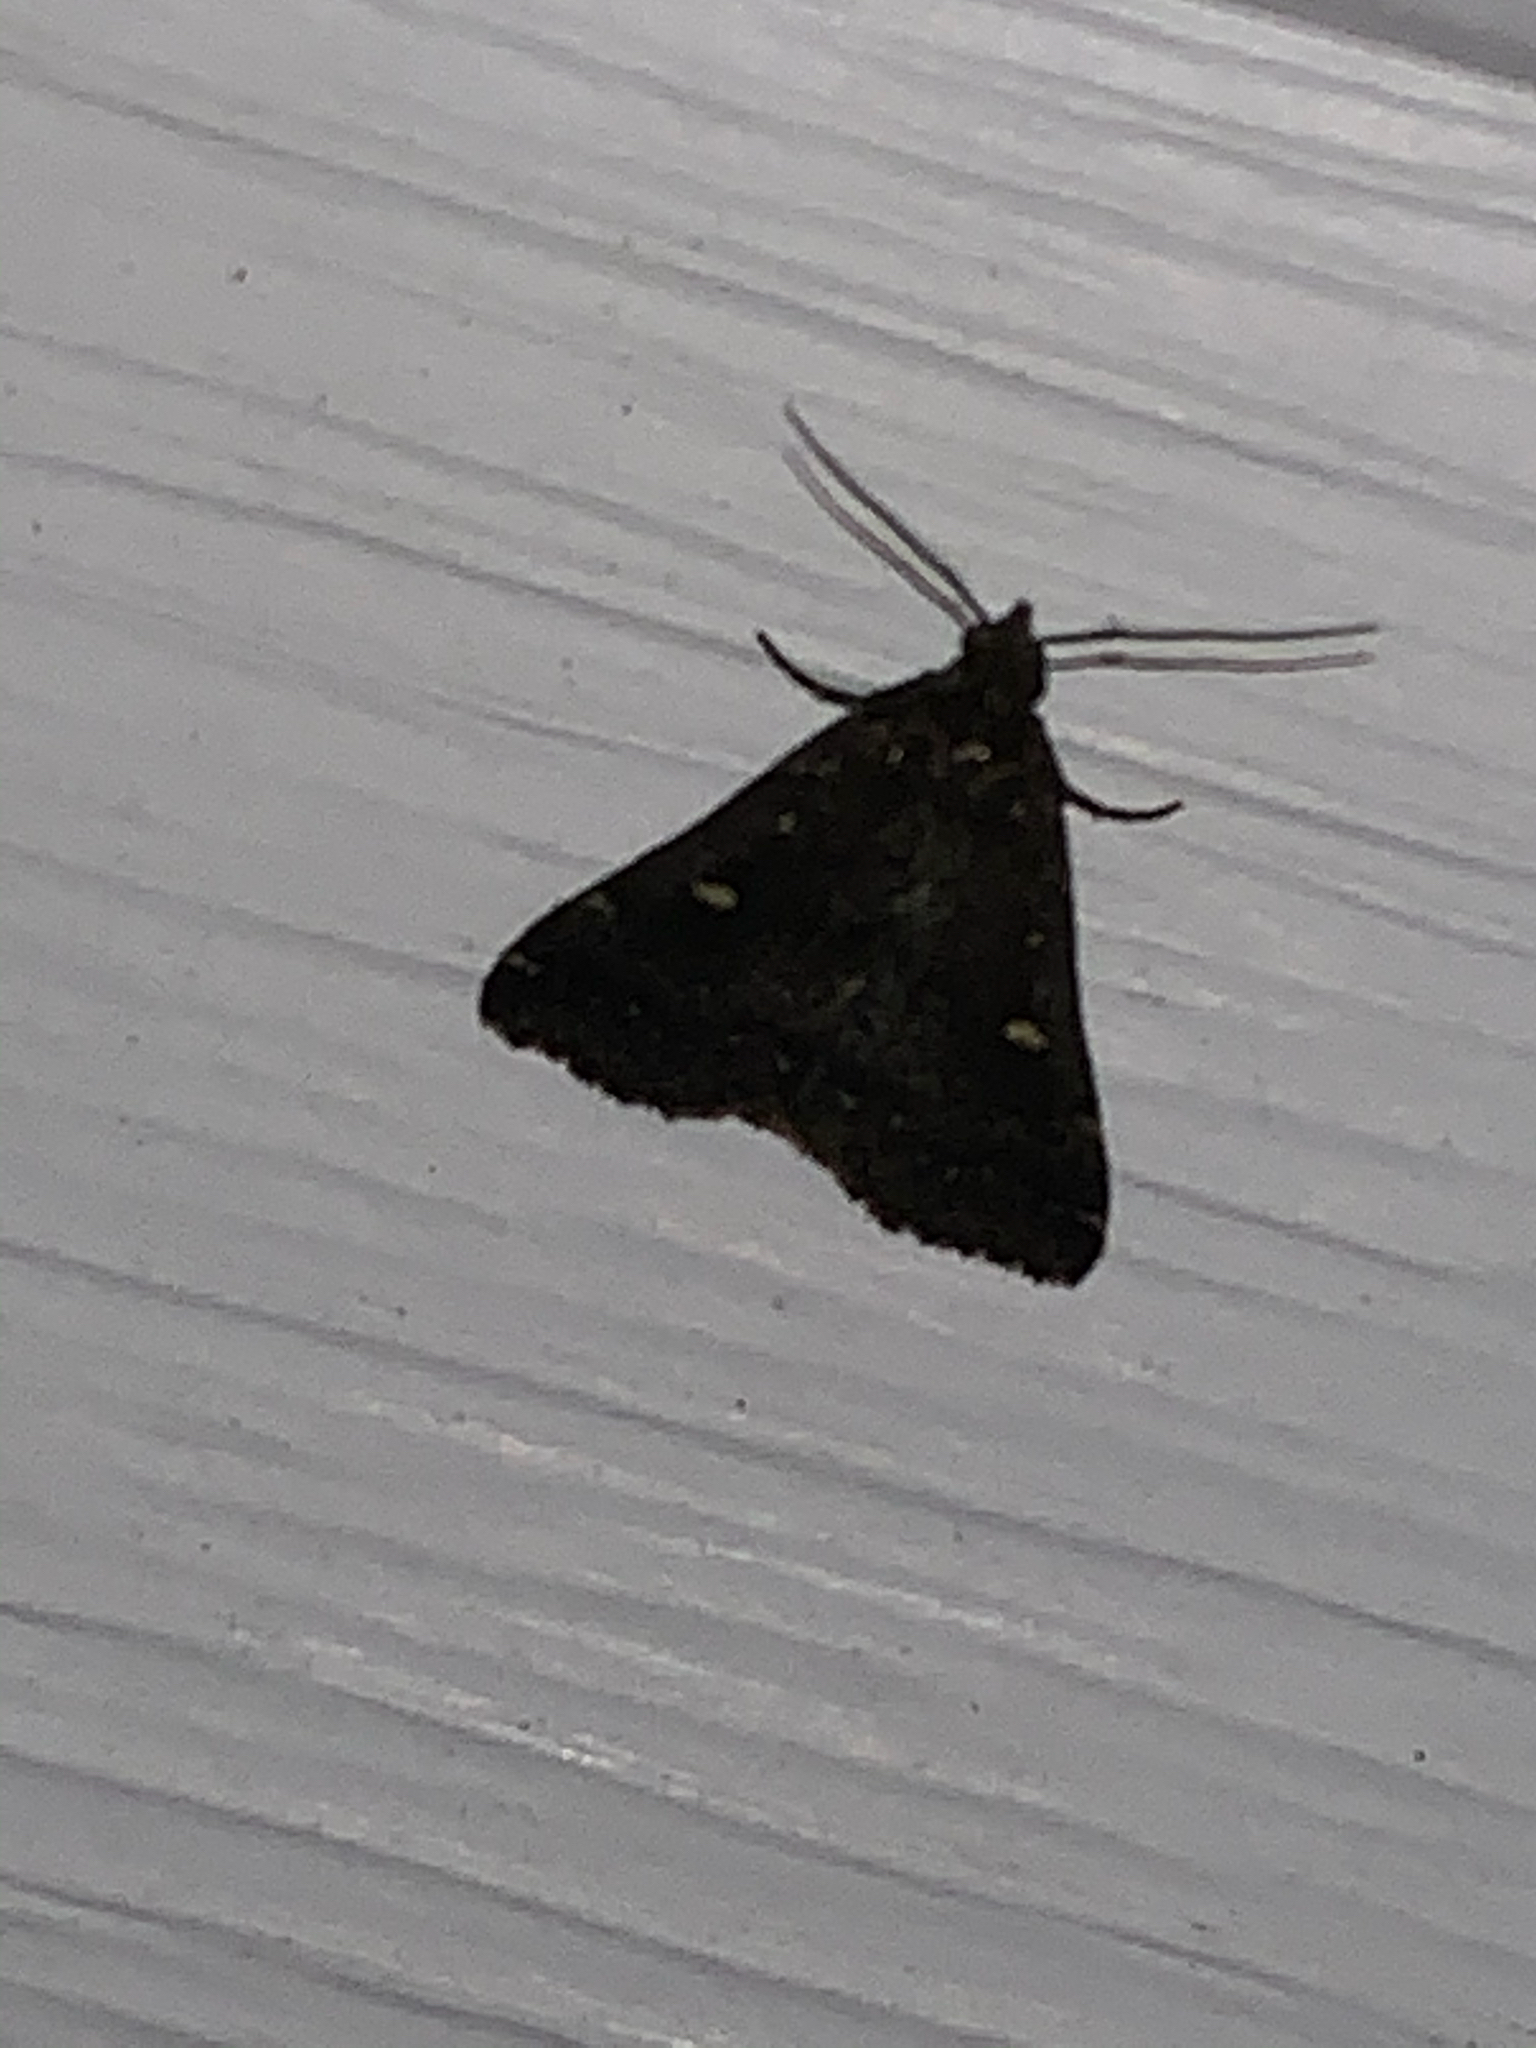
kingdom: Animalia
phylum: Arthropoda
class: Insecta
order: Lepidoptera
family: Erebidae
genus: Tetanolita
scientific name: Tetanolita mynesalis
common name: Smoky tetanolita moth
